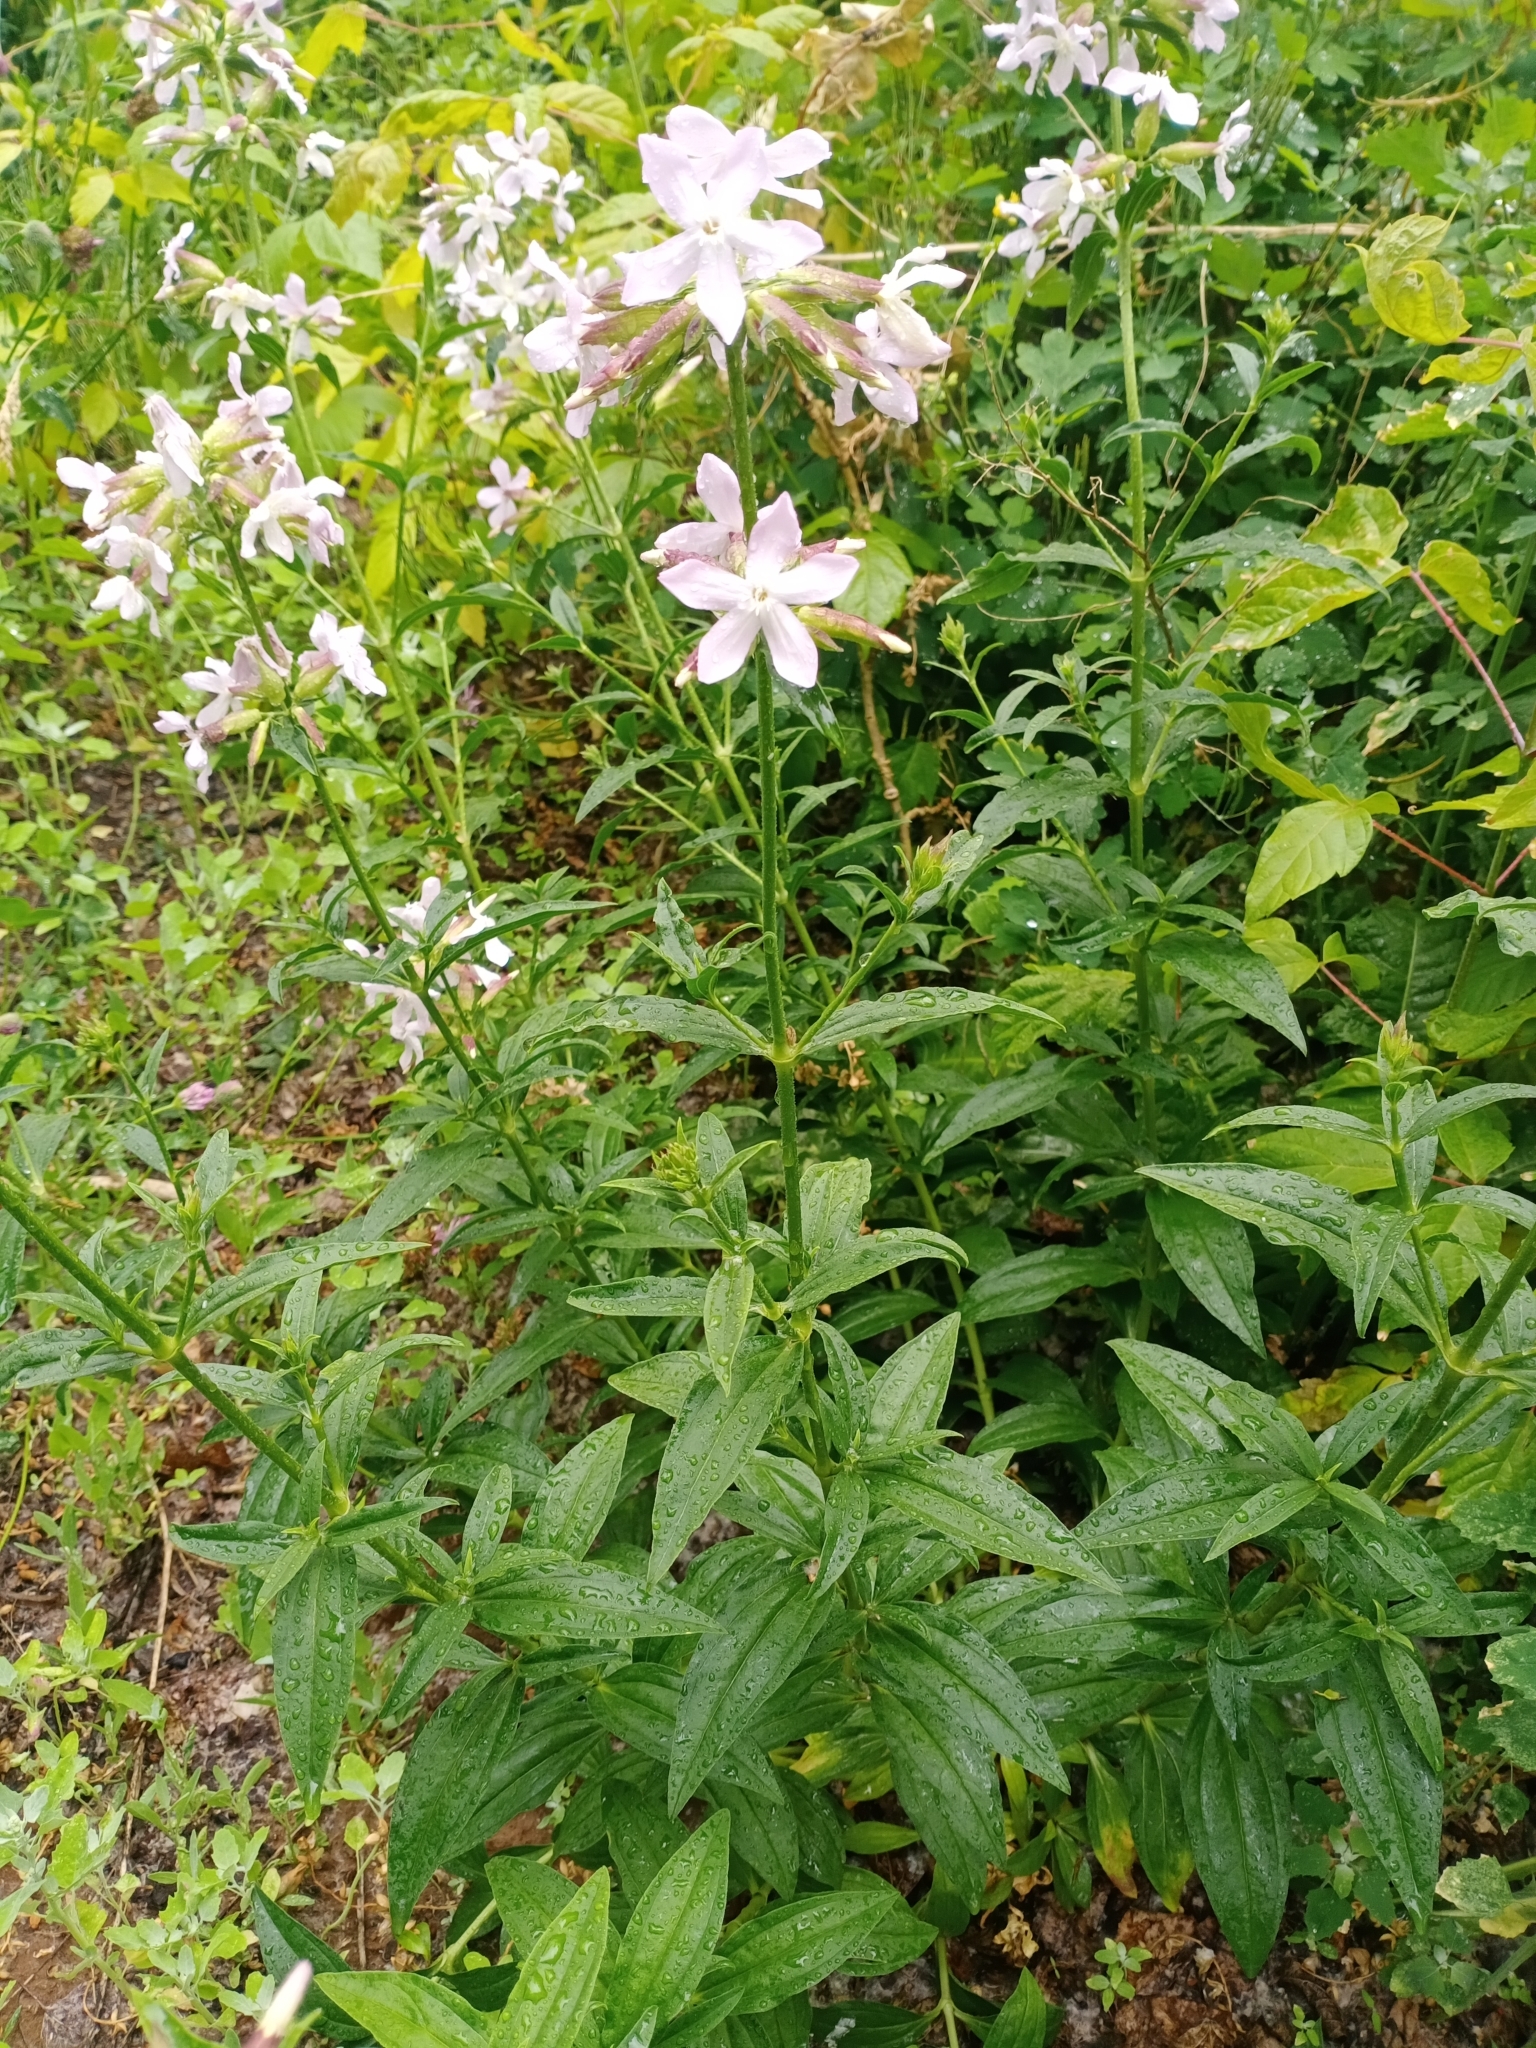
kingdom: Plantae
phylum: Tracheophyta
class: Magnoliopsida
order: Caryophyllales
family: Caryophyllaceae
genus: Saponaria
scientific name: Saponaria officinalis
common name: Soapwort
